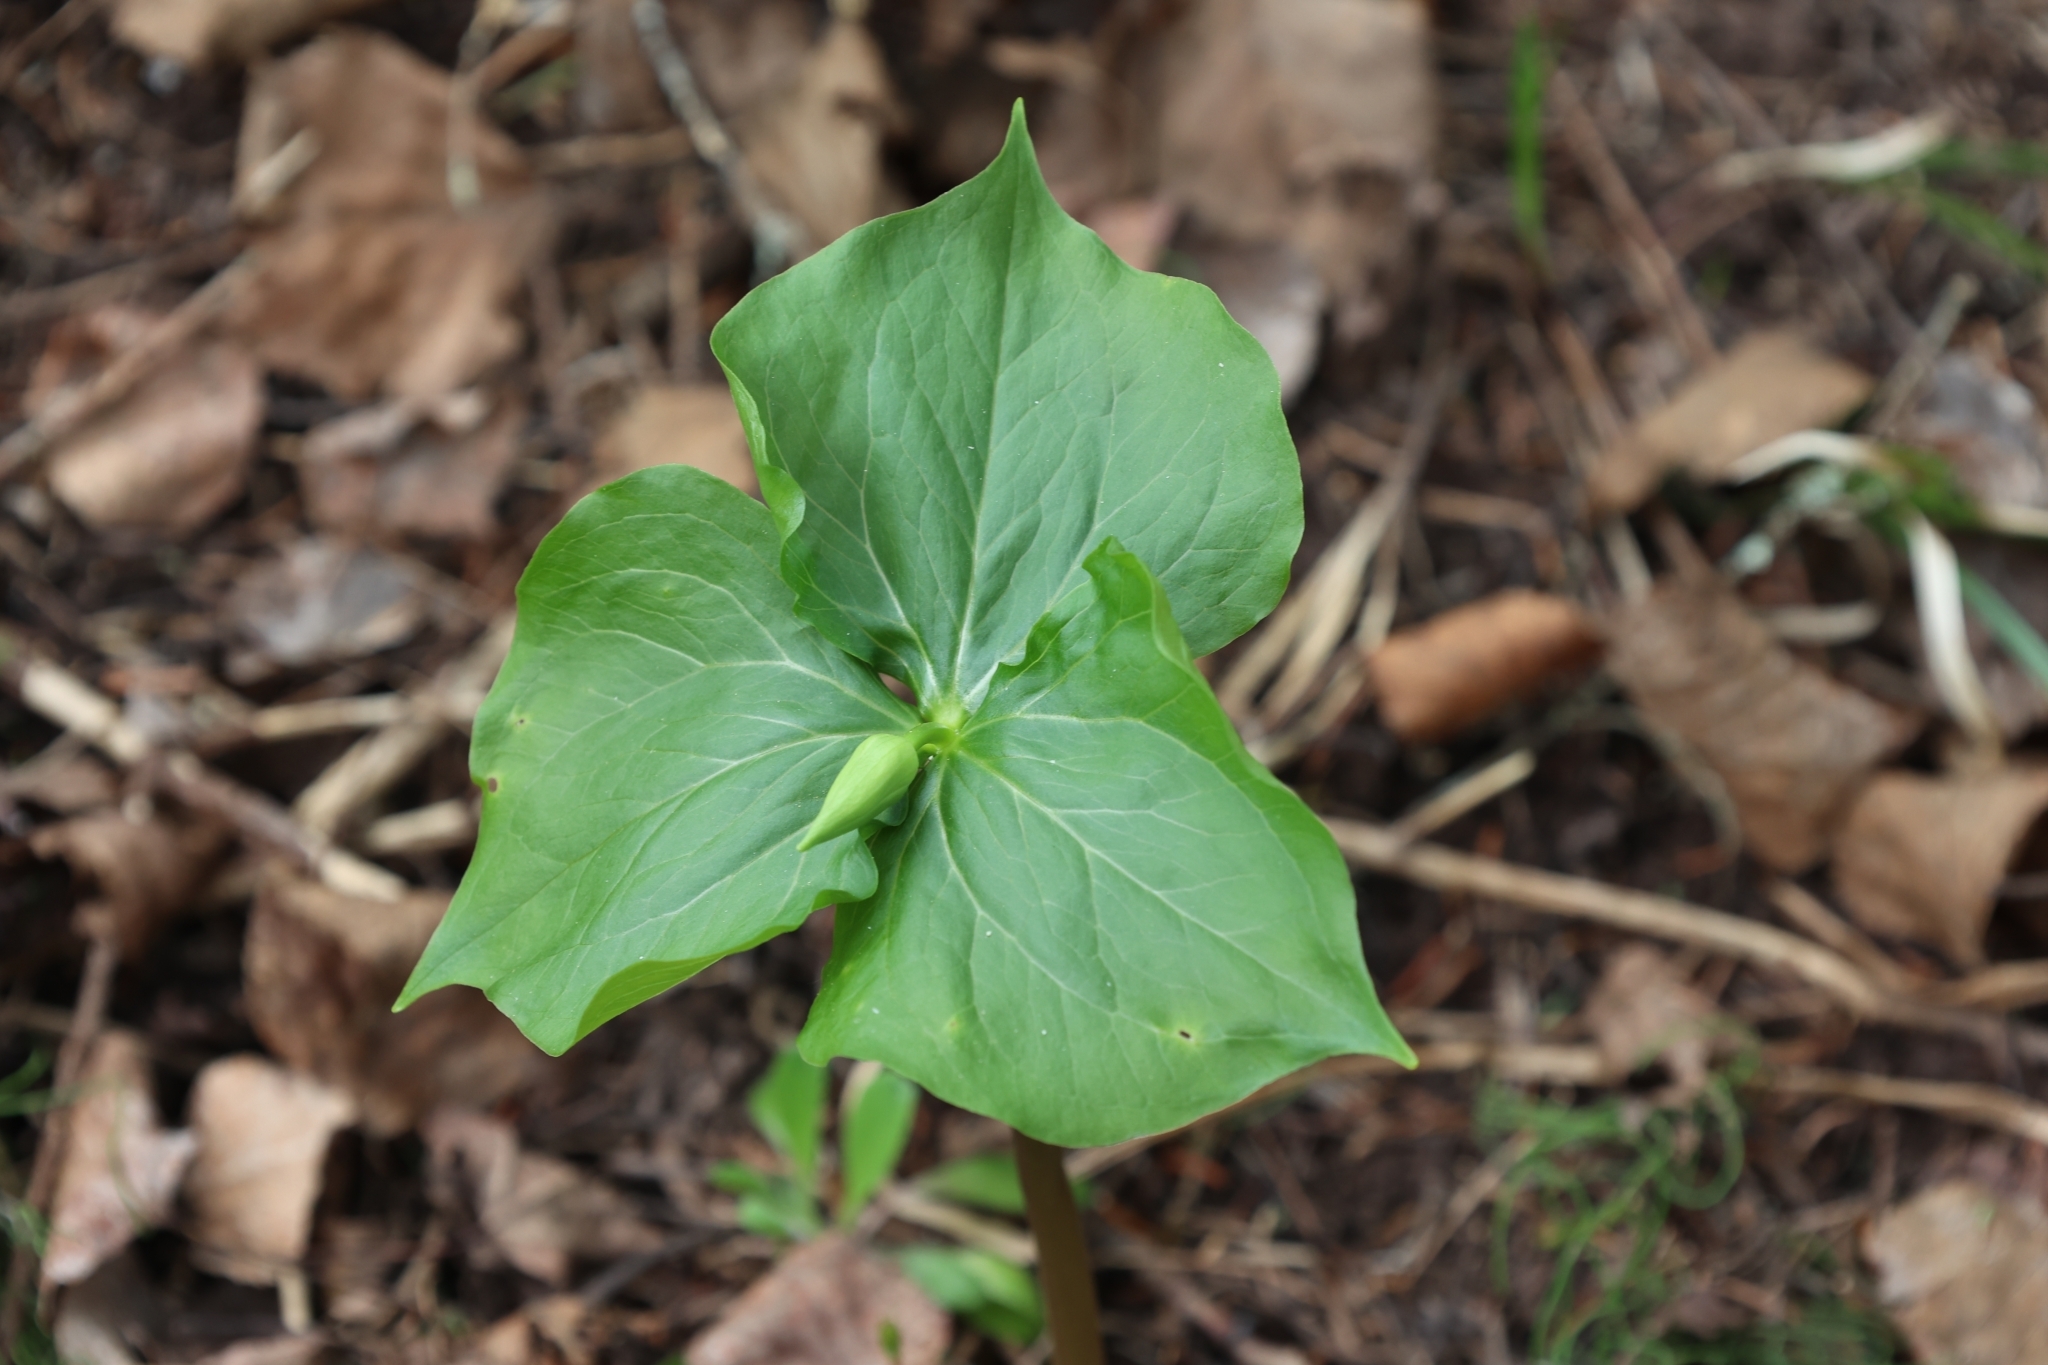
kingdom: Plantae
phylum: Tracheophyta
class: Liliopsida
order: Liliales
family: Melanthiaceae
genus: Trillium
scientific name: Trillium cernuum
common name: Nodding trillium
